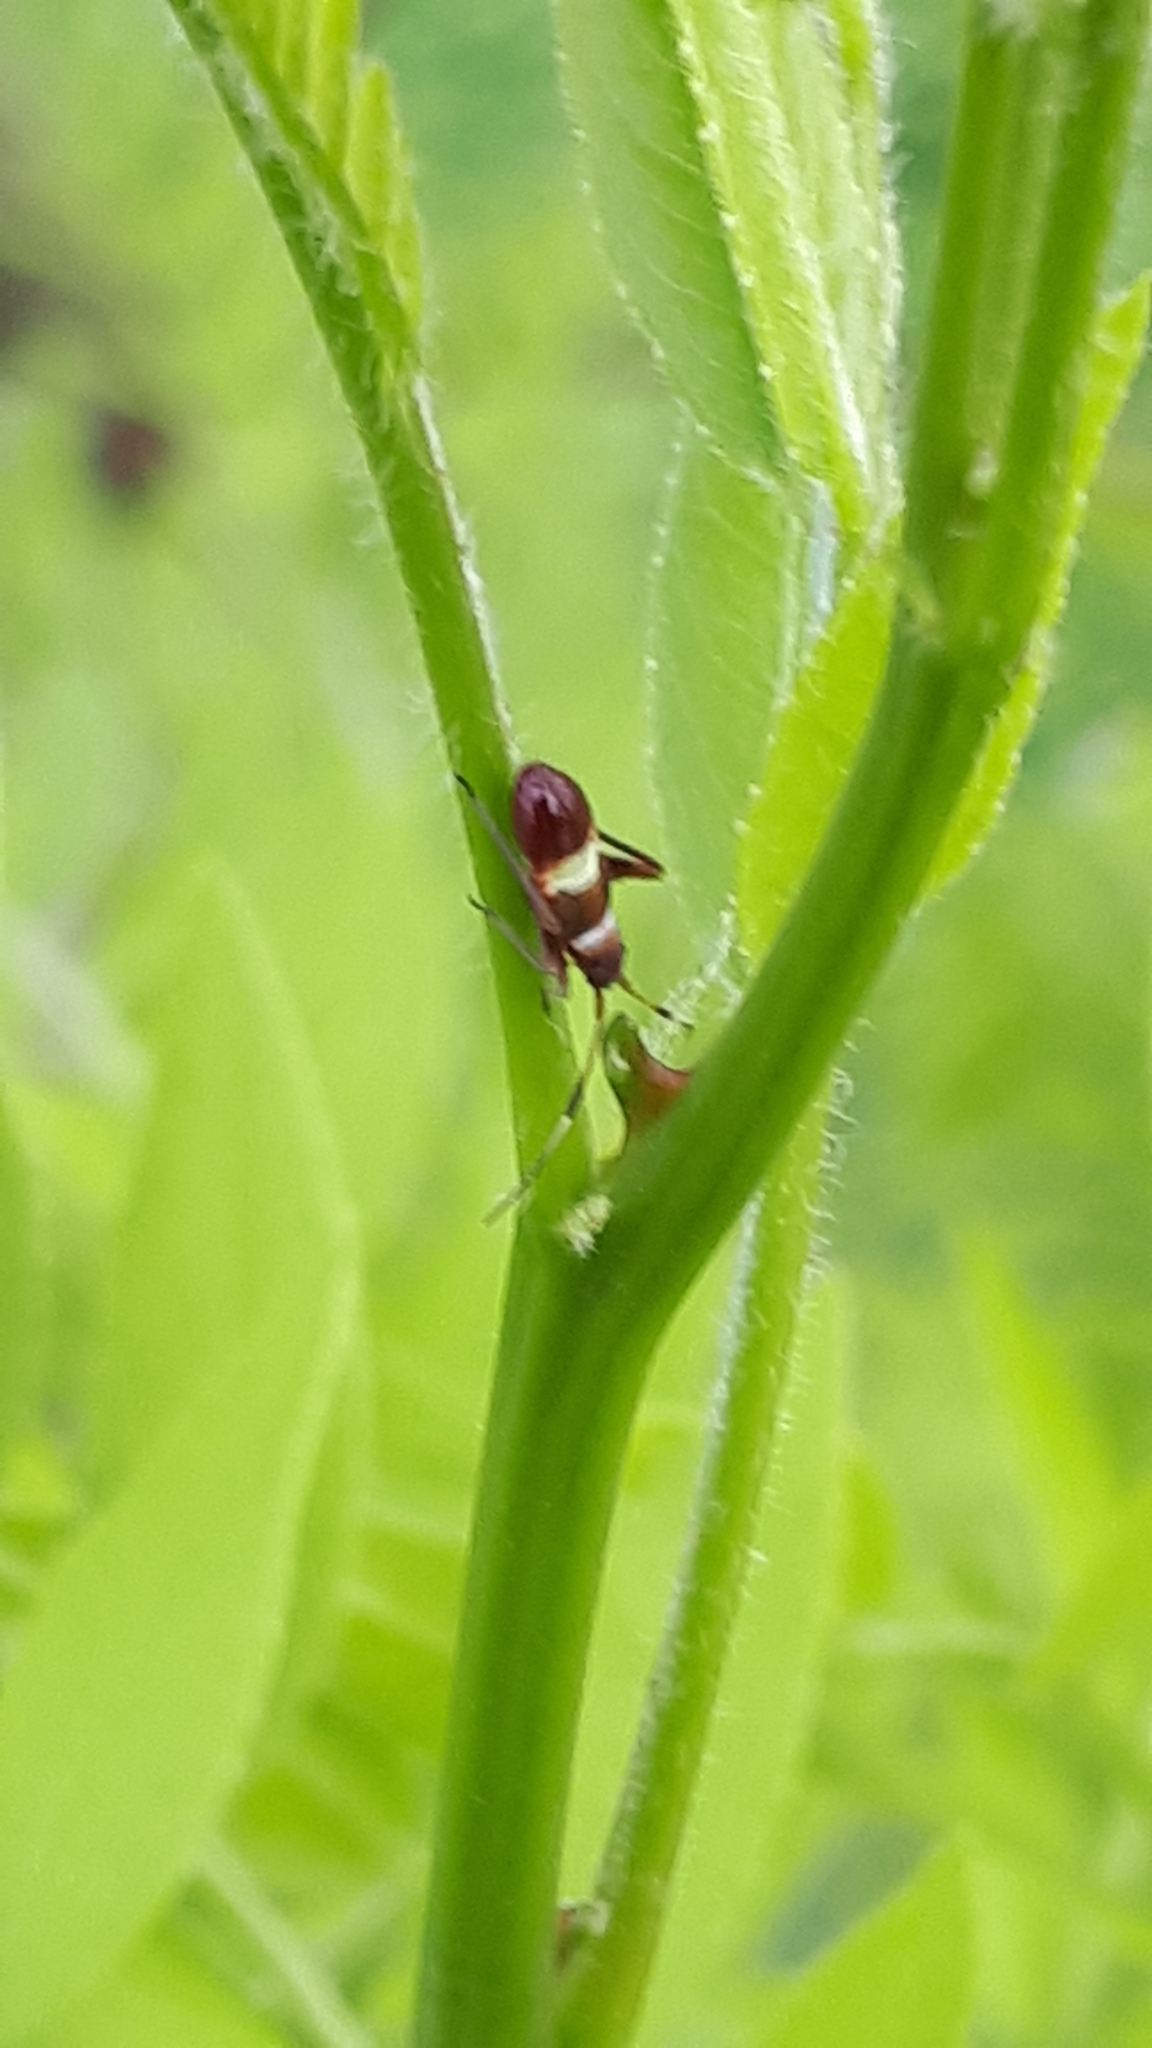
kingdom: Animalia
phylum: Arthropoda
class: Insecta
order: Hemiptera
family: Miridae
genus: Closterotomus
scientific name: Closterotomus biclavatus
